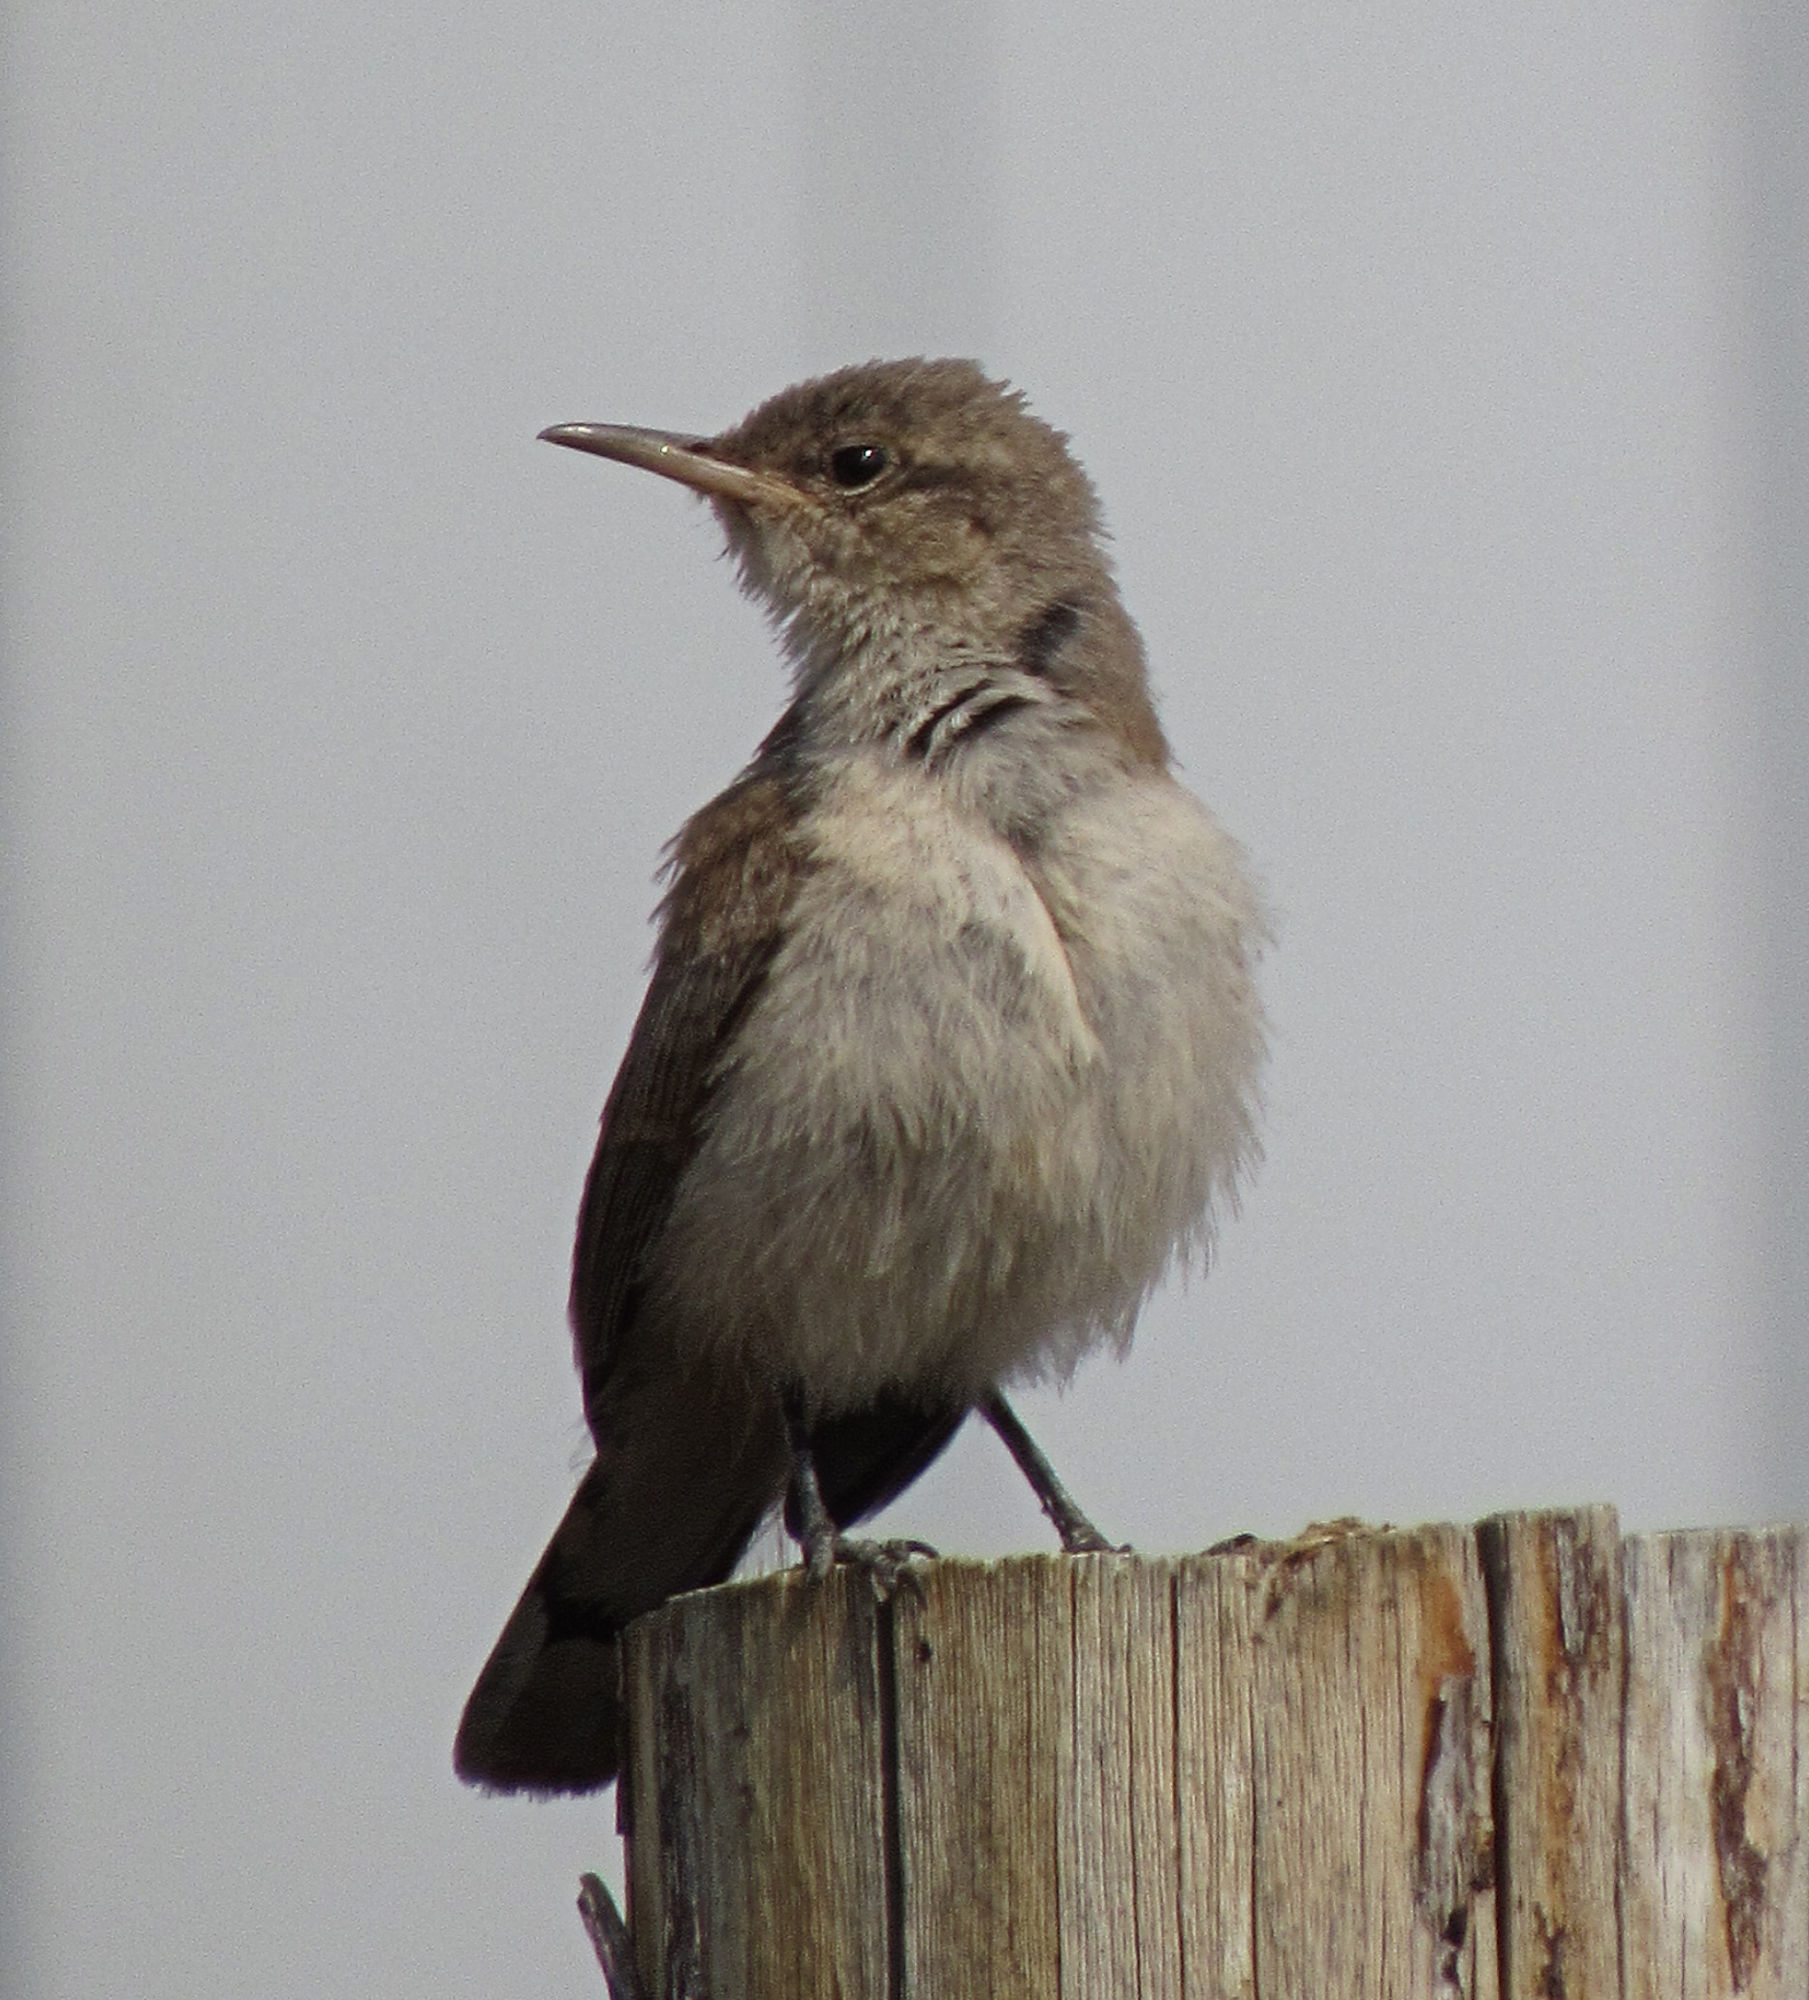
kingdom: Animalia
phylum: Chordata
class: Aves
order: Passeriformes
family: Troglodytidae
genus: Salpinctes
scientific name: Salpinctes obsoletus
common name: Rock wren
